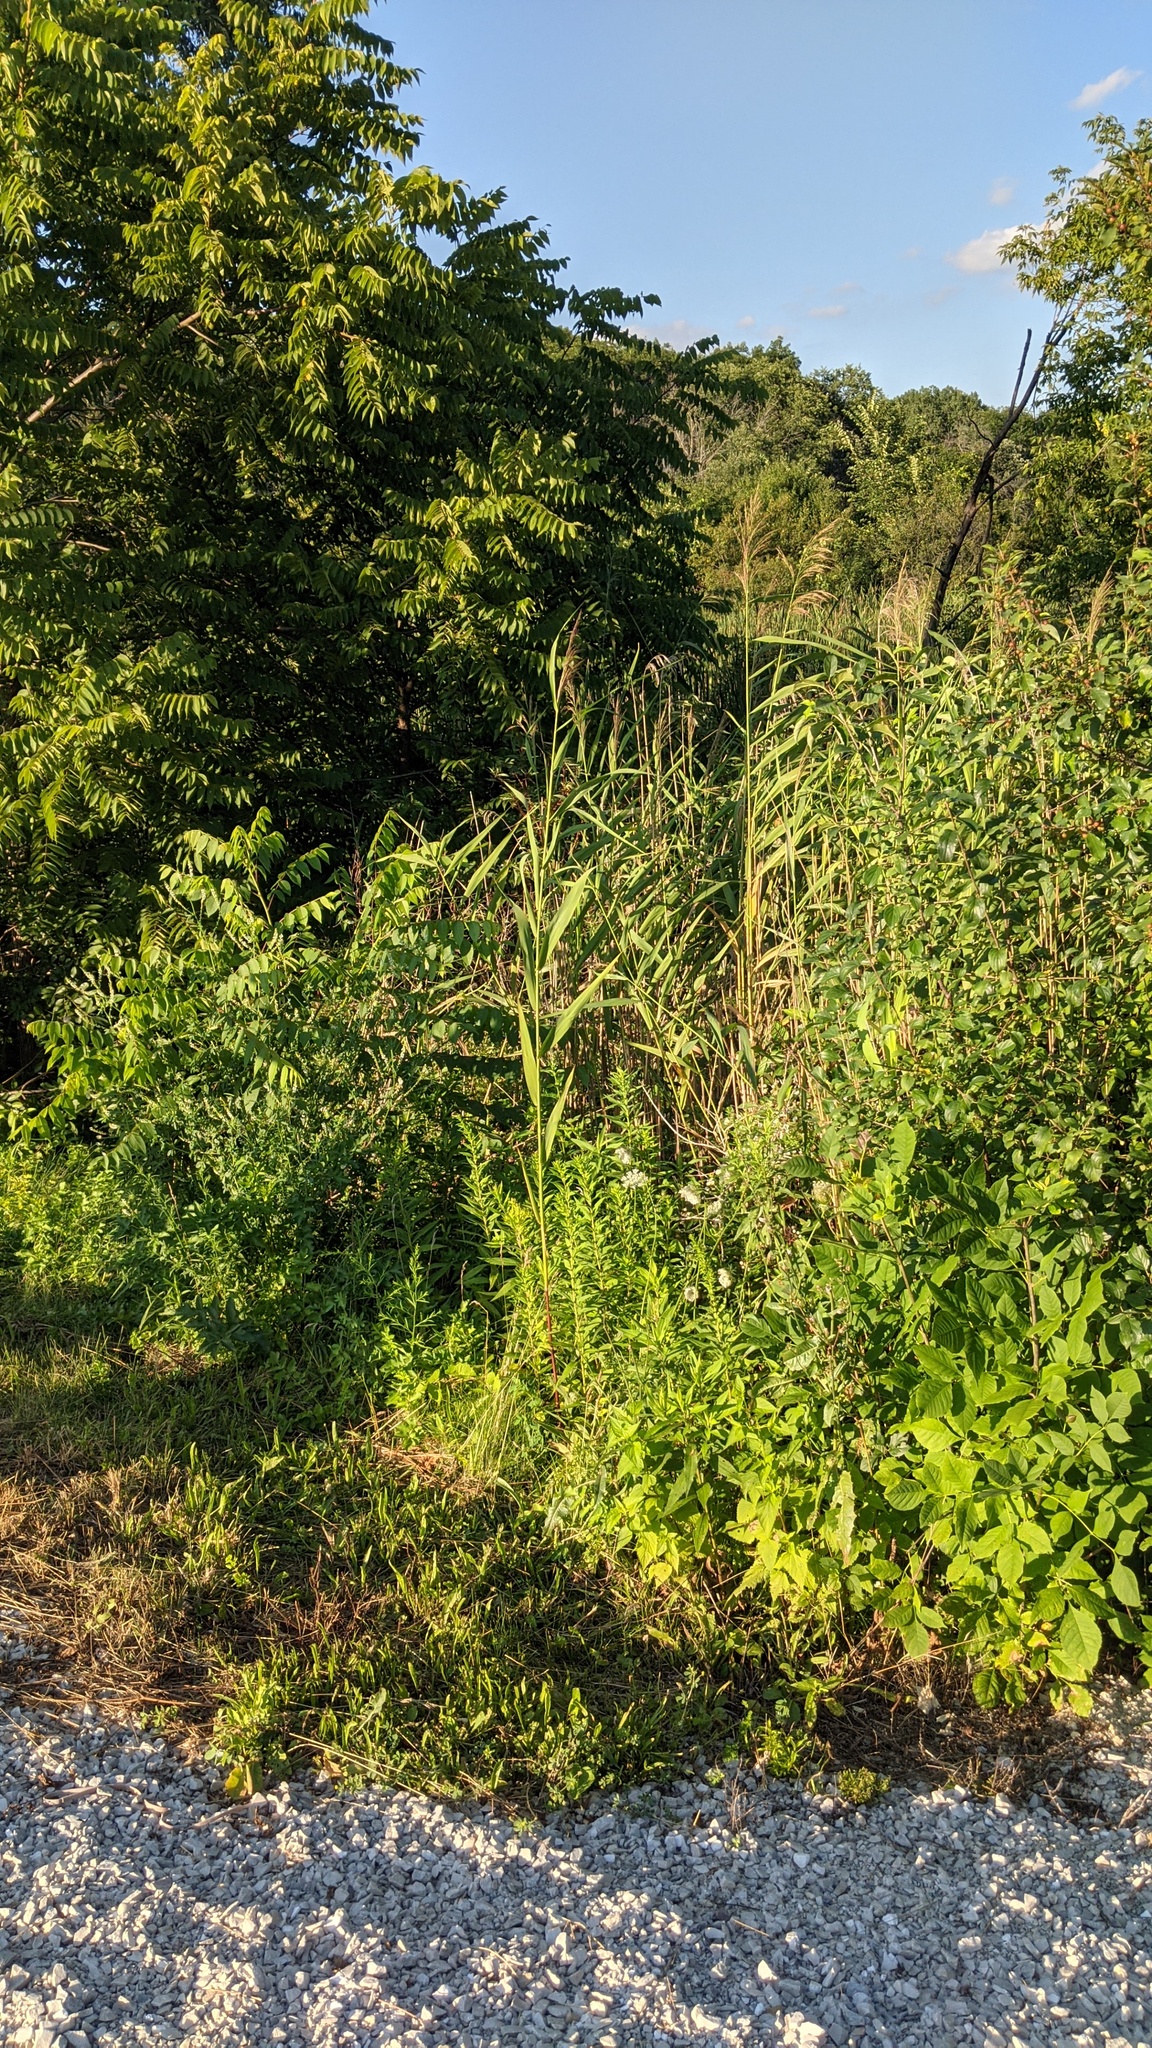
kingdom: Plantae
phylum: Tracheophyta
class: Liliopsida
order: Poales
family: Poaceae
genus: Phragmites
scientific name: Phragmites australis
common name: Common reed
